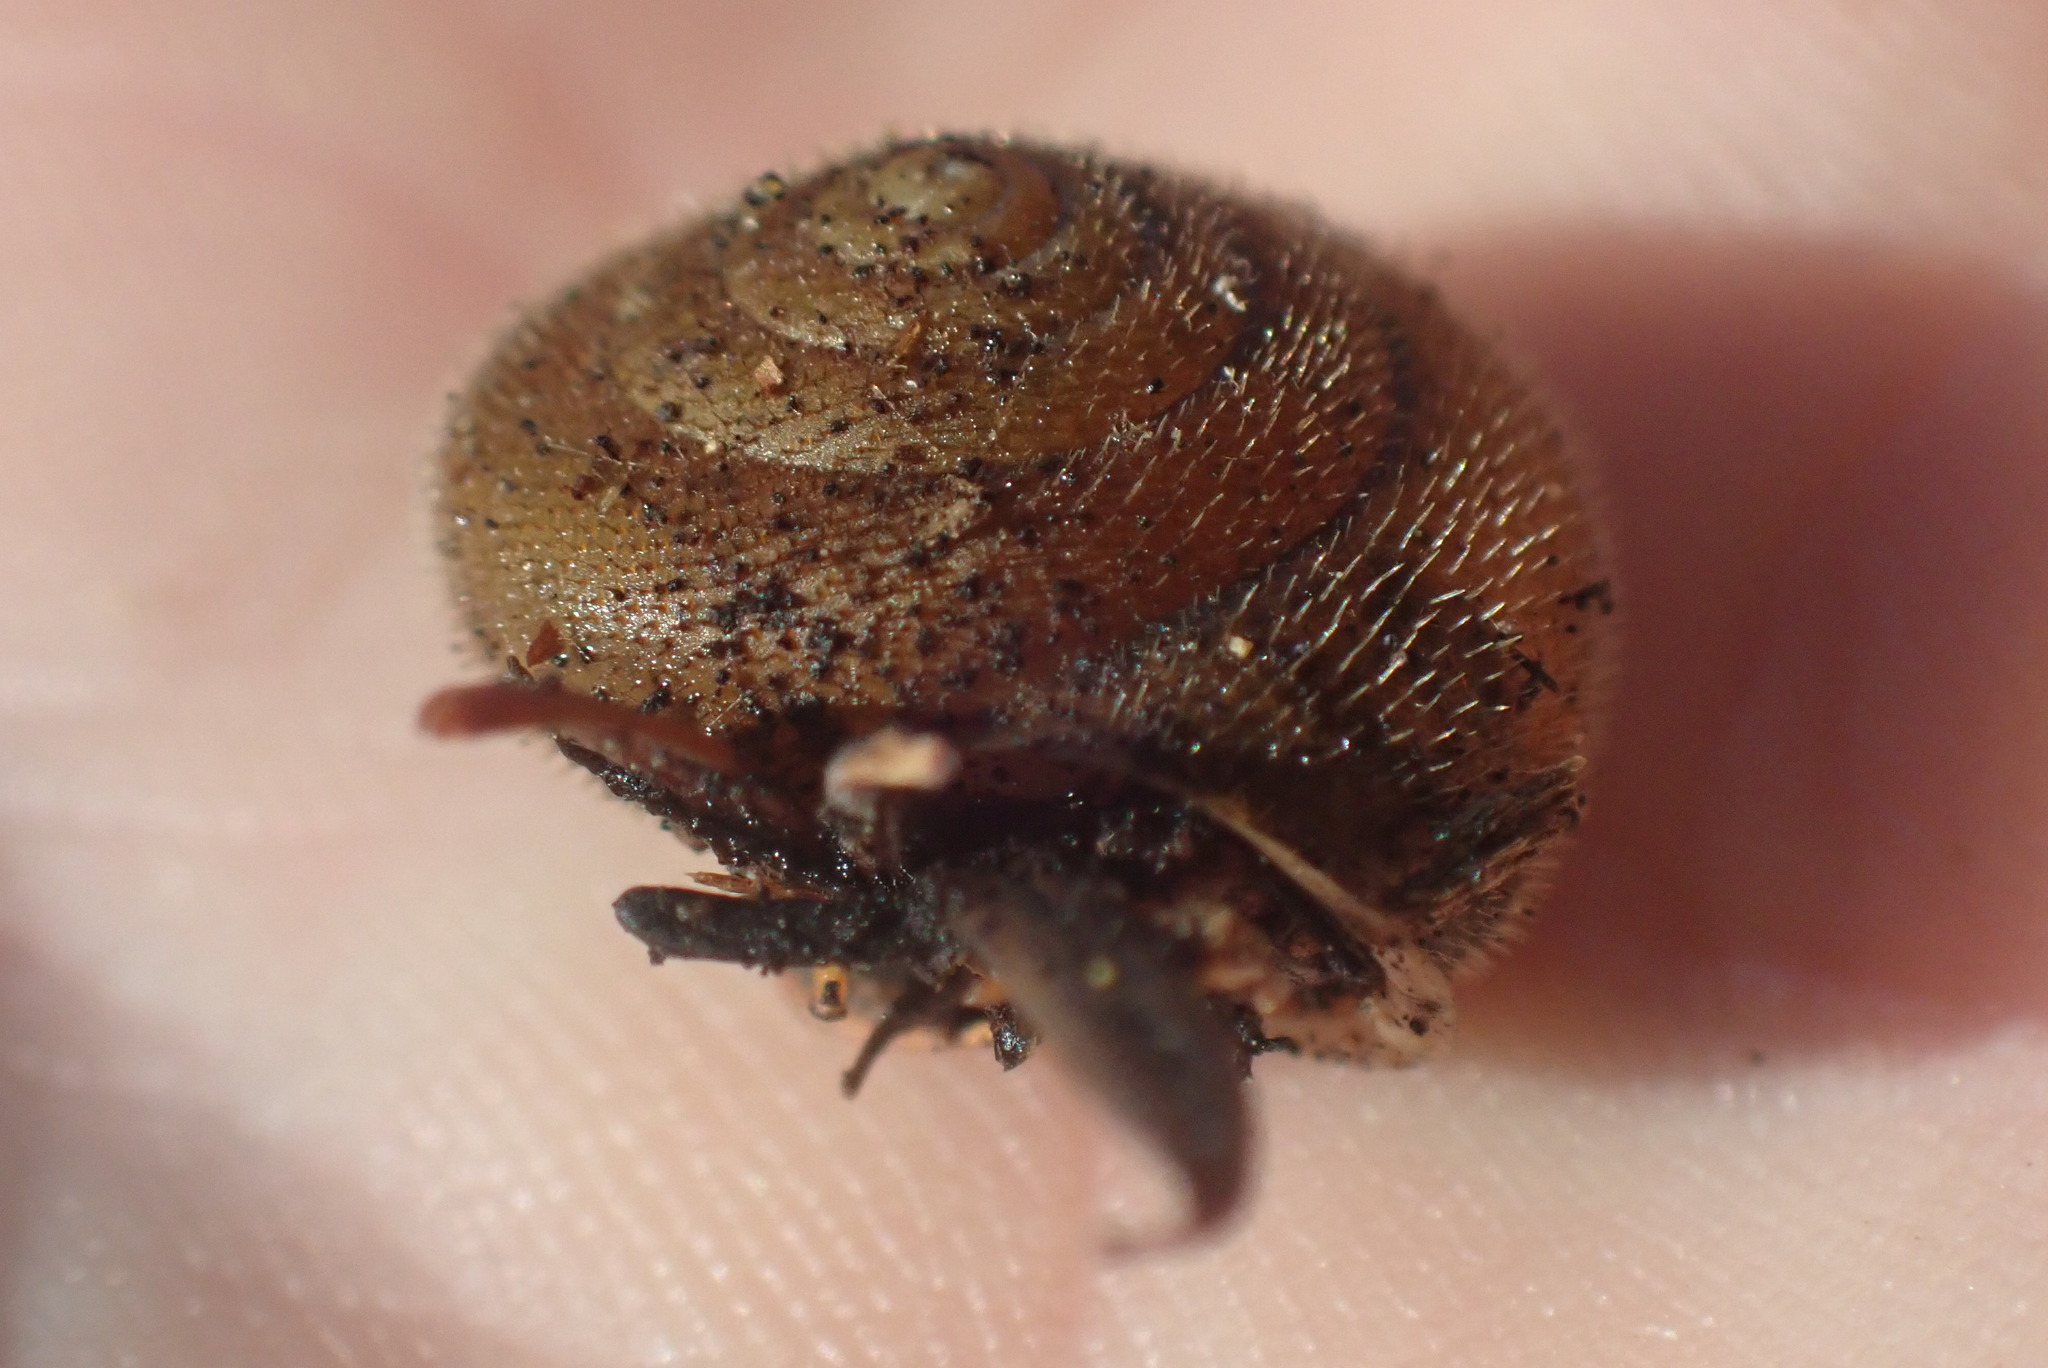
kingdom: Animalia
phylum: Mollusca
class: Gastropoda
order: Stylommatophora
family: Polygyridae
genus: Vespericola
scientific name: Vespericola columbianus
